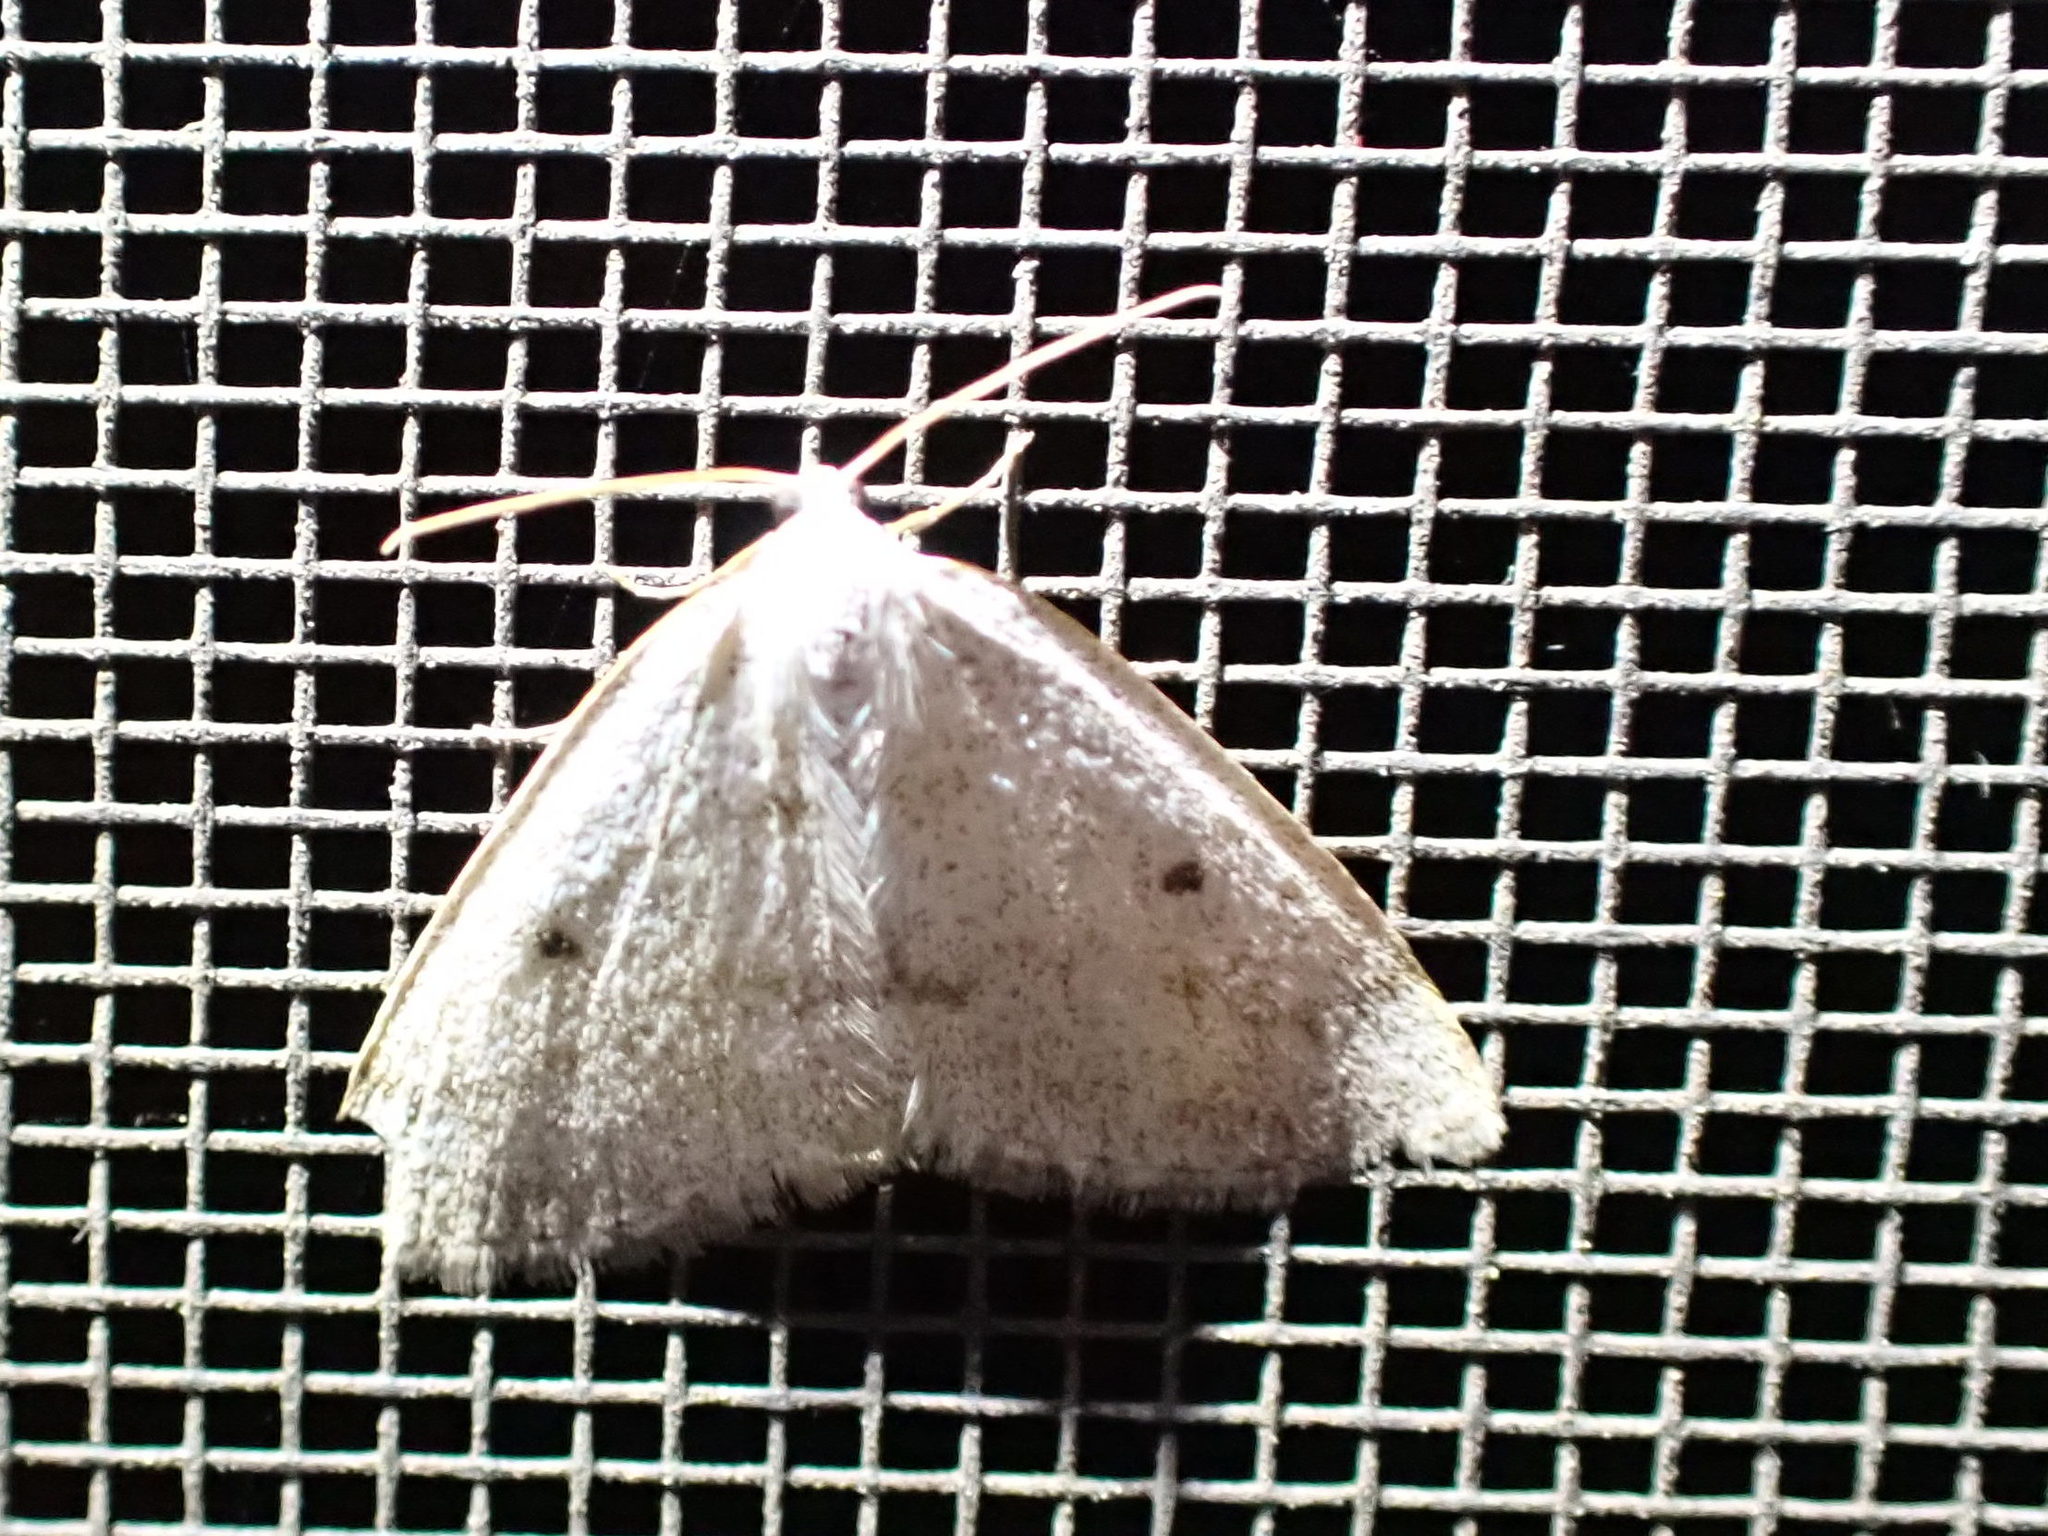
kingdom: Animalia
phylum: Arthropoda
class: Insecta
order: Lepidoptera
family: Geometridae
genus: Lomographa
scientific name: Lomographa glomeraria
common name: Gray spring moth
